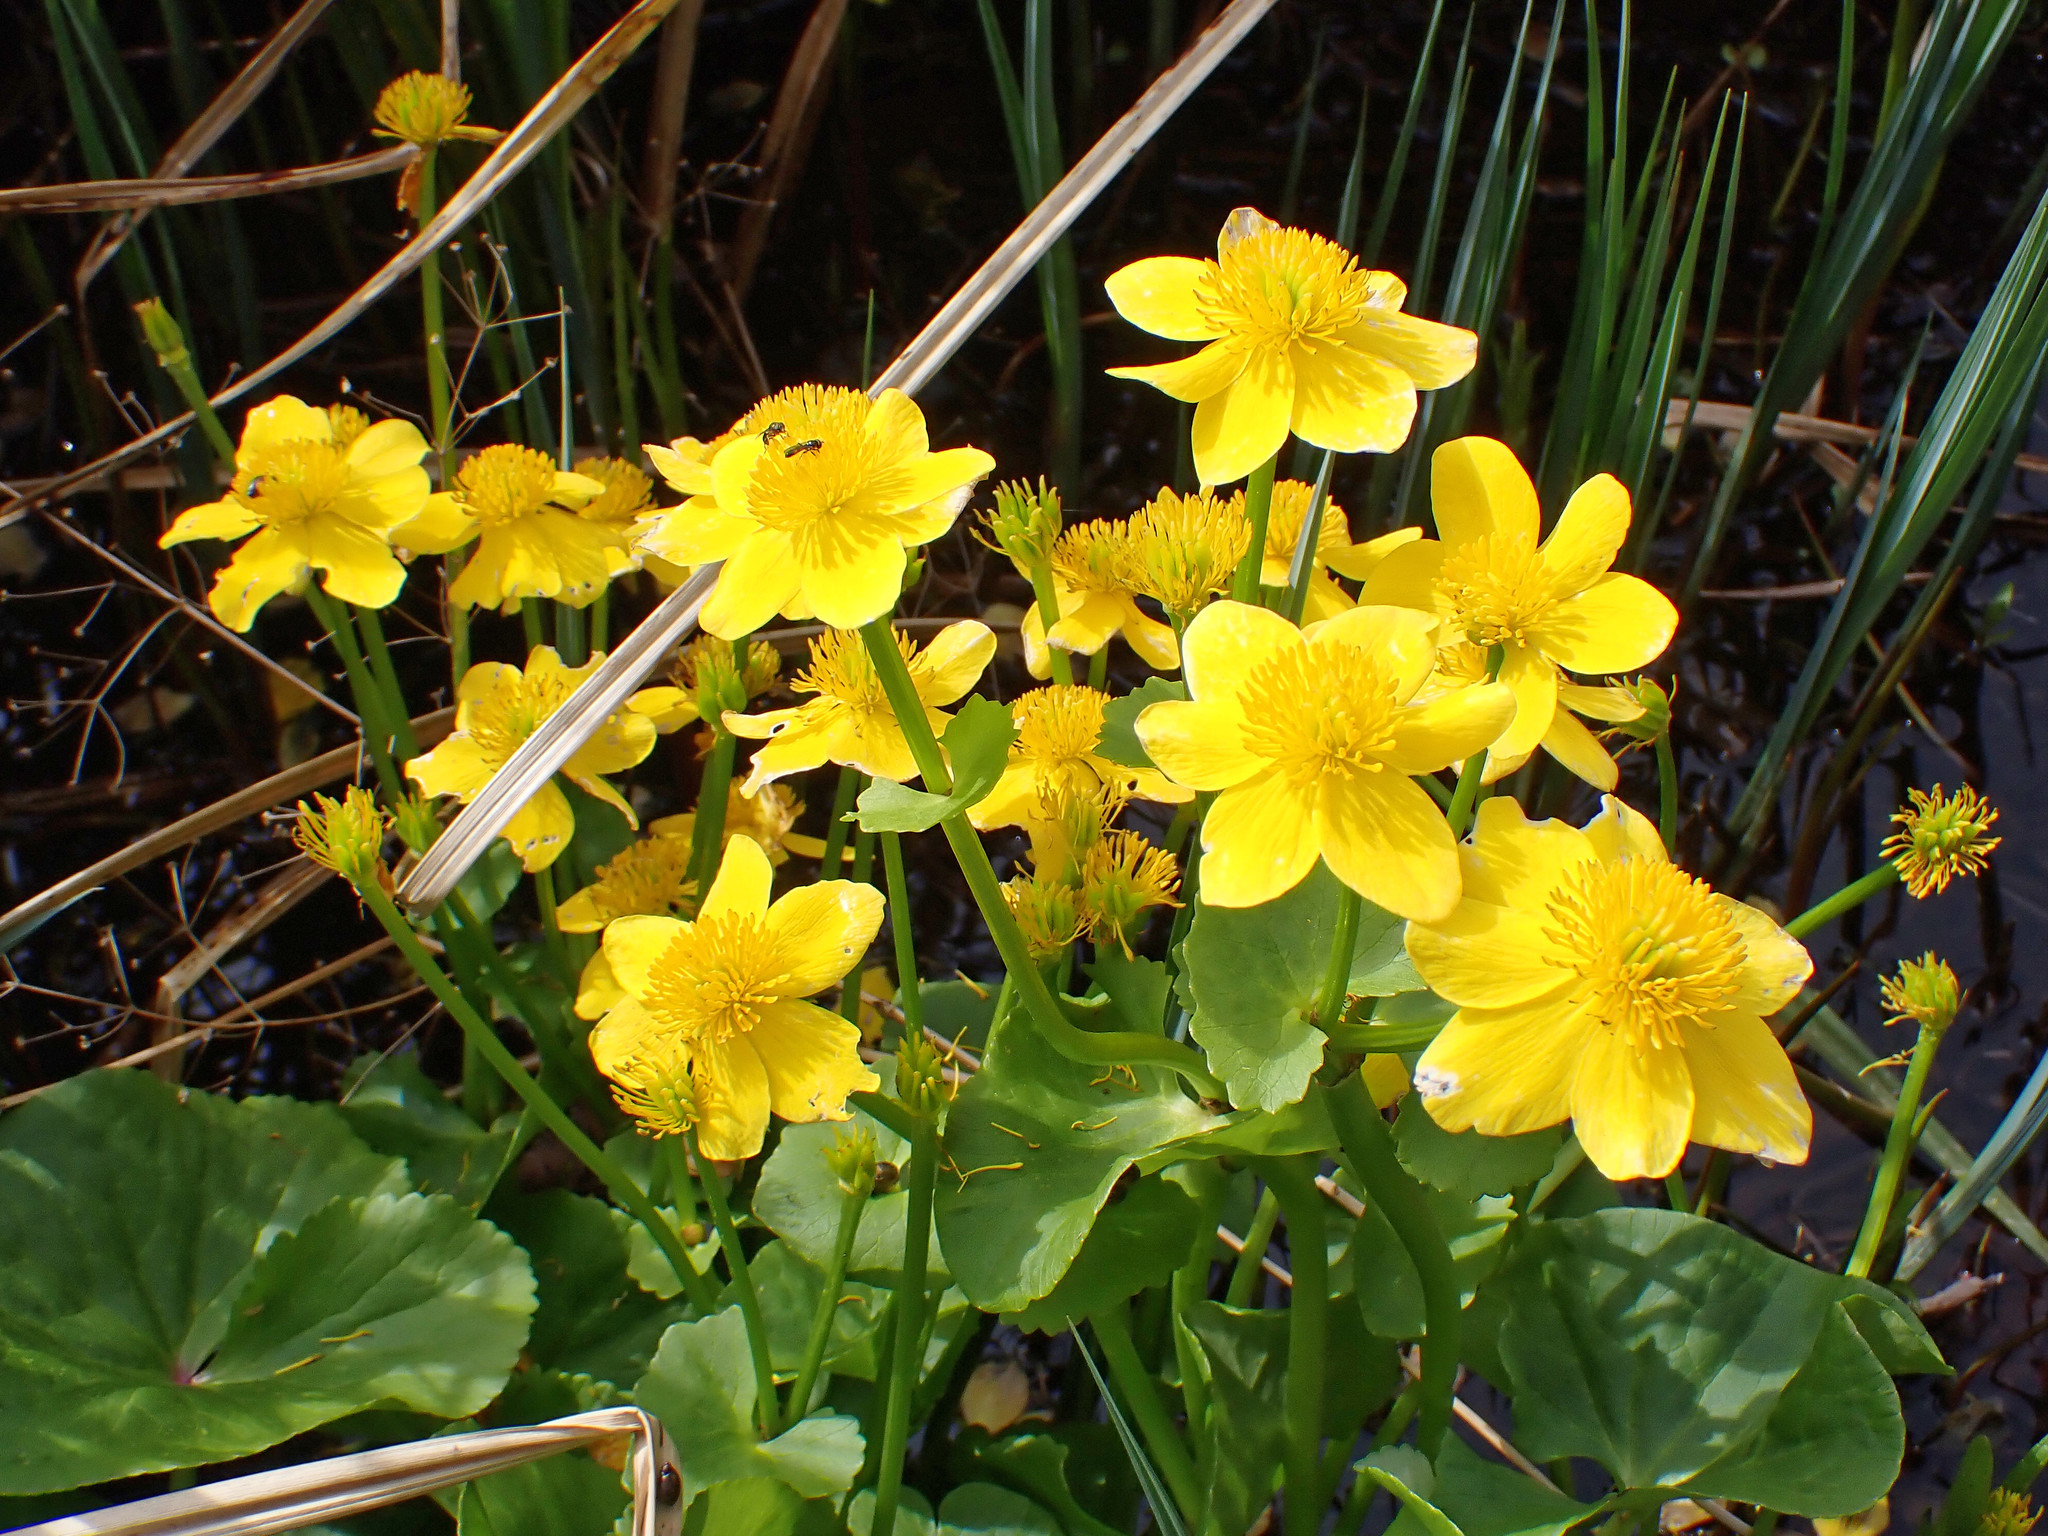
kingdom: Plantae
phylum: Tracheophyta
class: Magnoliopsida
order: Ranunculales
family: Ranunculaceae
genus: Caltha
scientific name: Caltha palustris
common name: Marsh marigold
